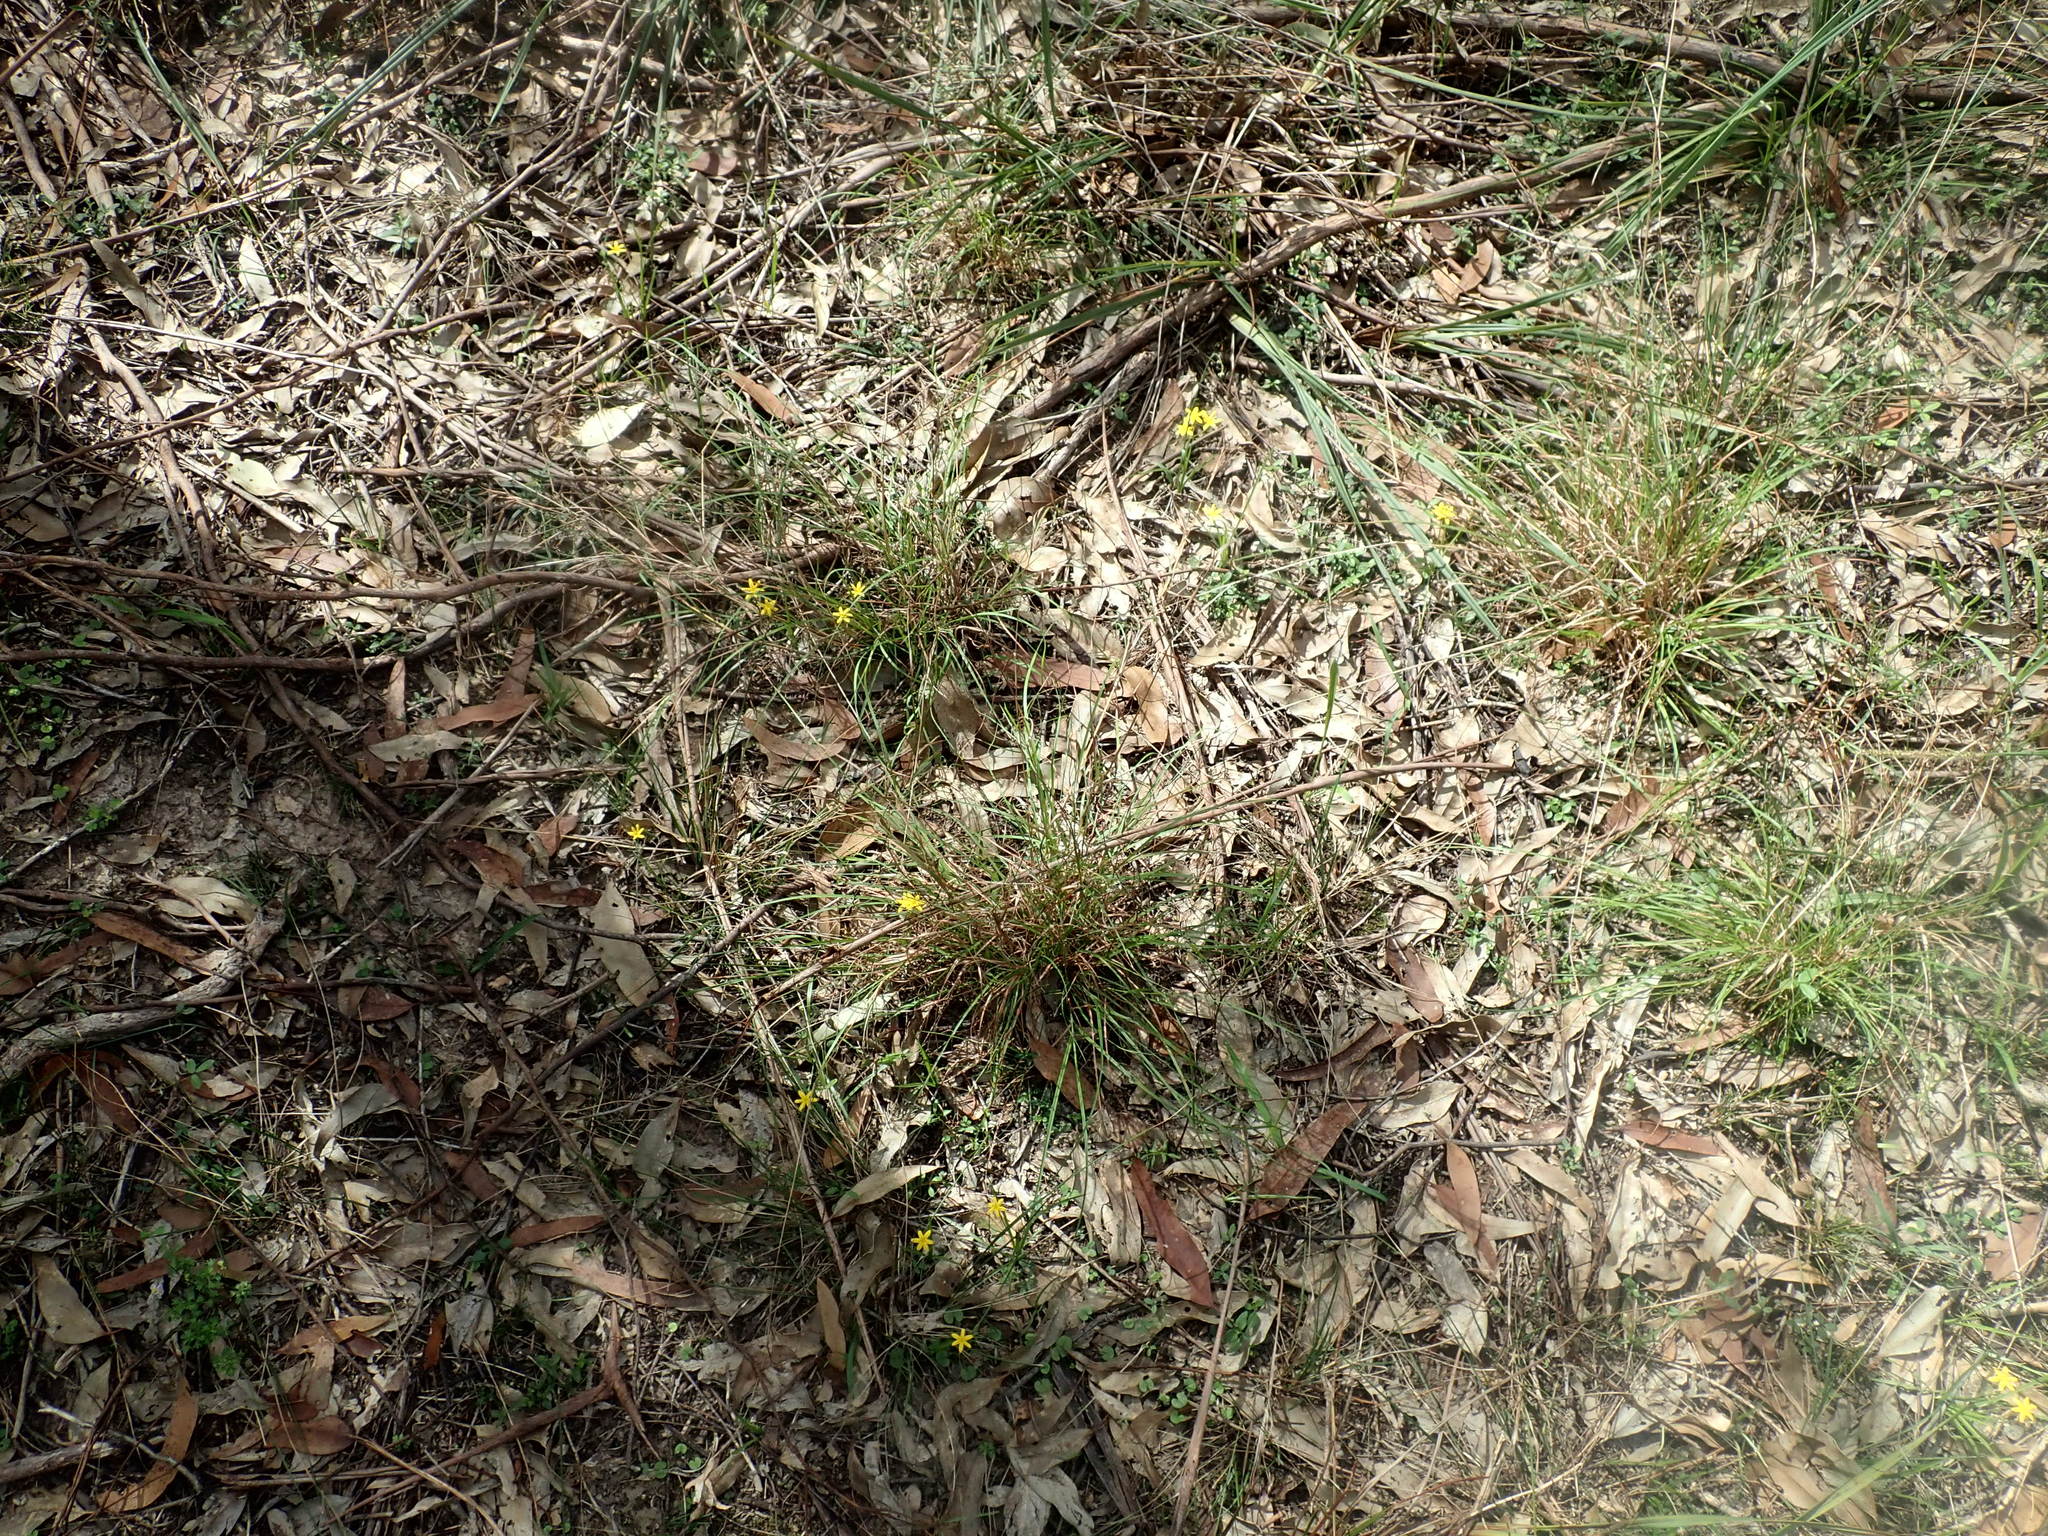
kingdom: Plantae
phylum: Tracheophyta
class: Liliopsida
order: Asparagales
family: Hypoxidaceae
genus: Hypoxis
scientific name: Hypoxis hygrometrica
